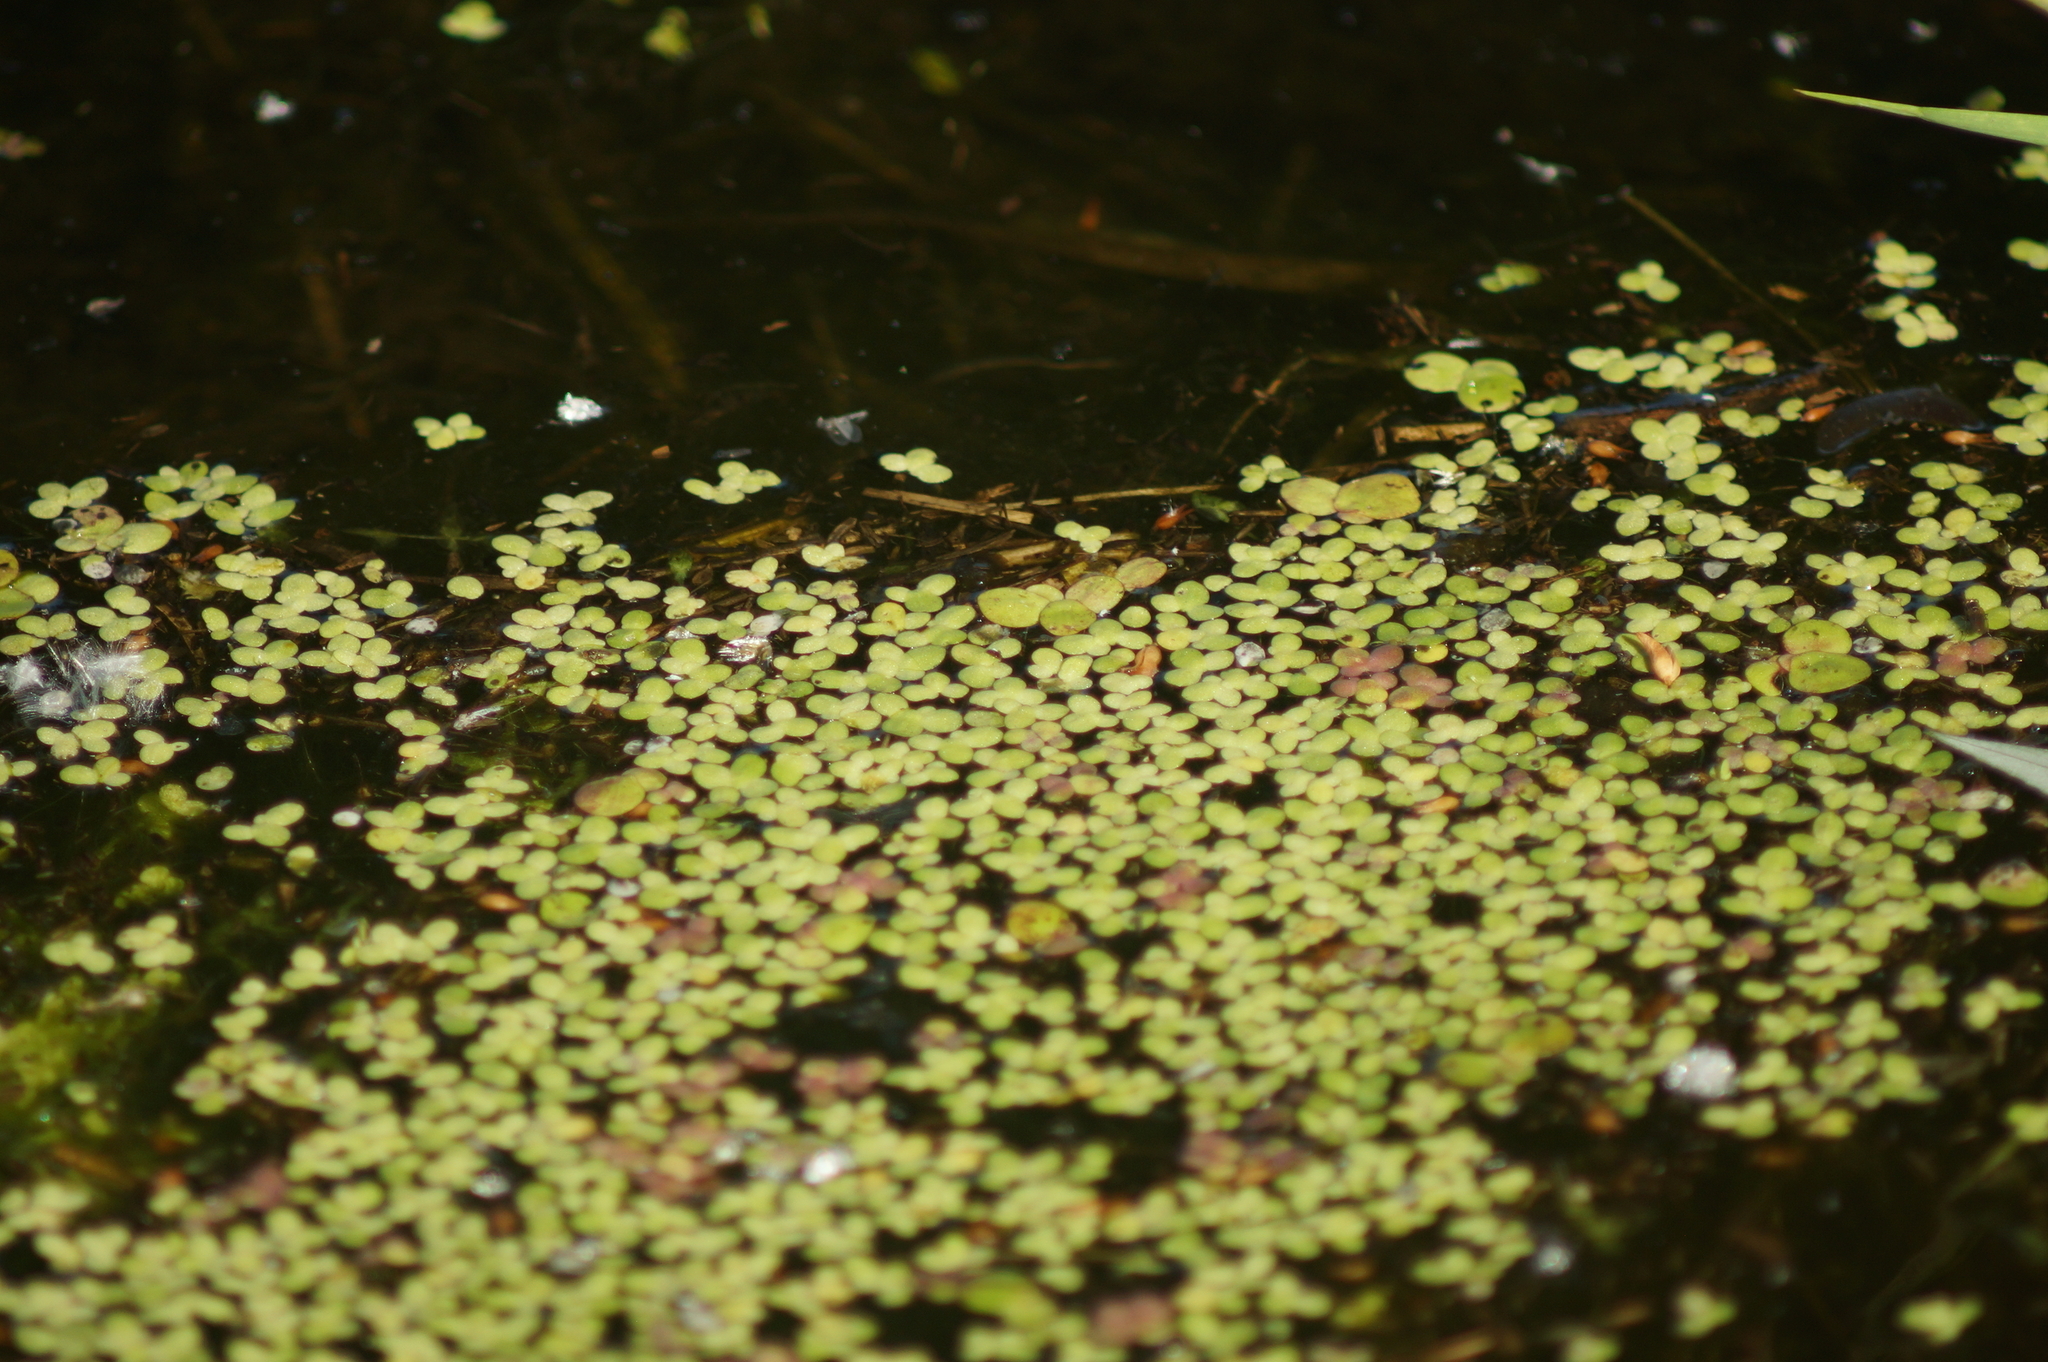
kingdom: Plantae
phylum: Tracheophyta
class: Liliopsida
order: Alismatales
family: Araceae
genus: Lemna
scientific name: Lemna minor
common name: Common duckweed
